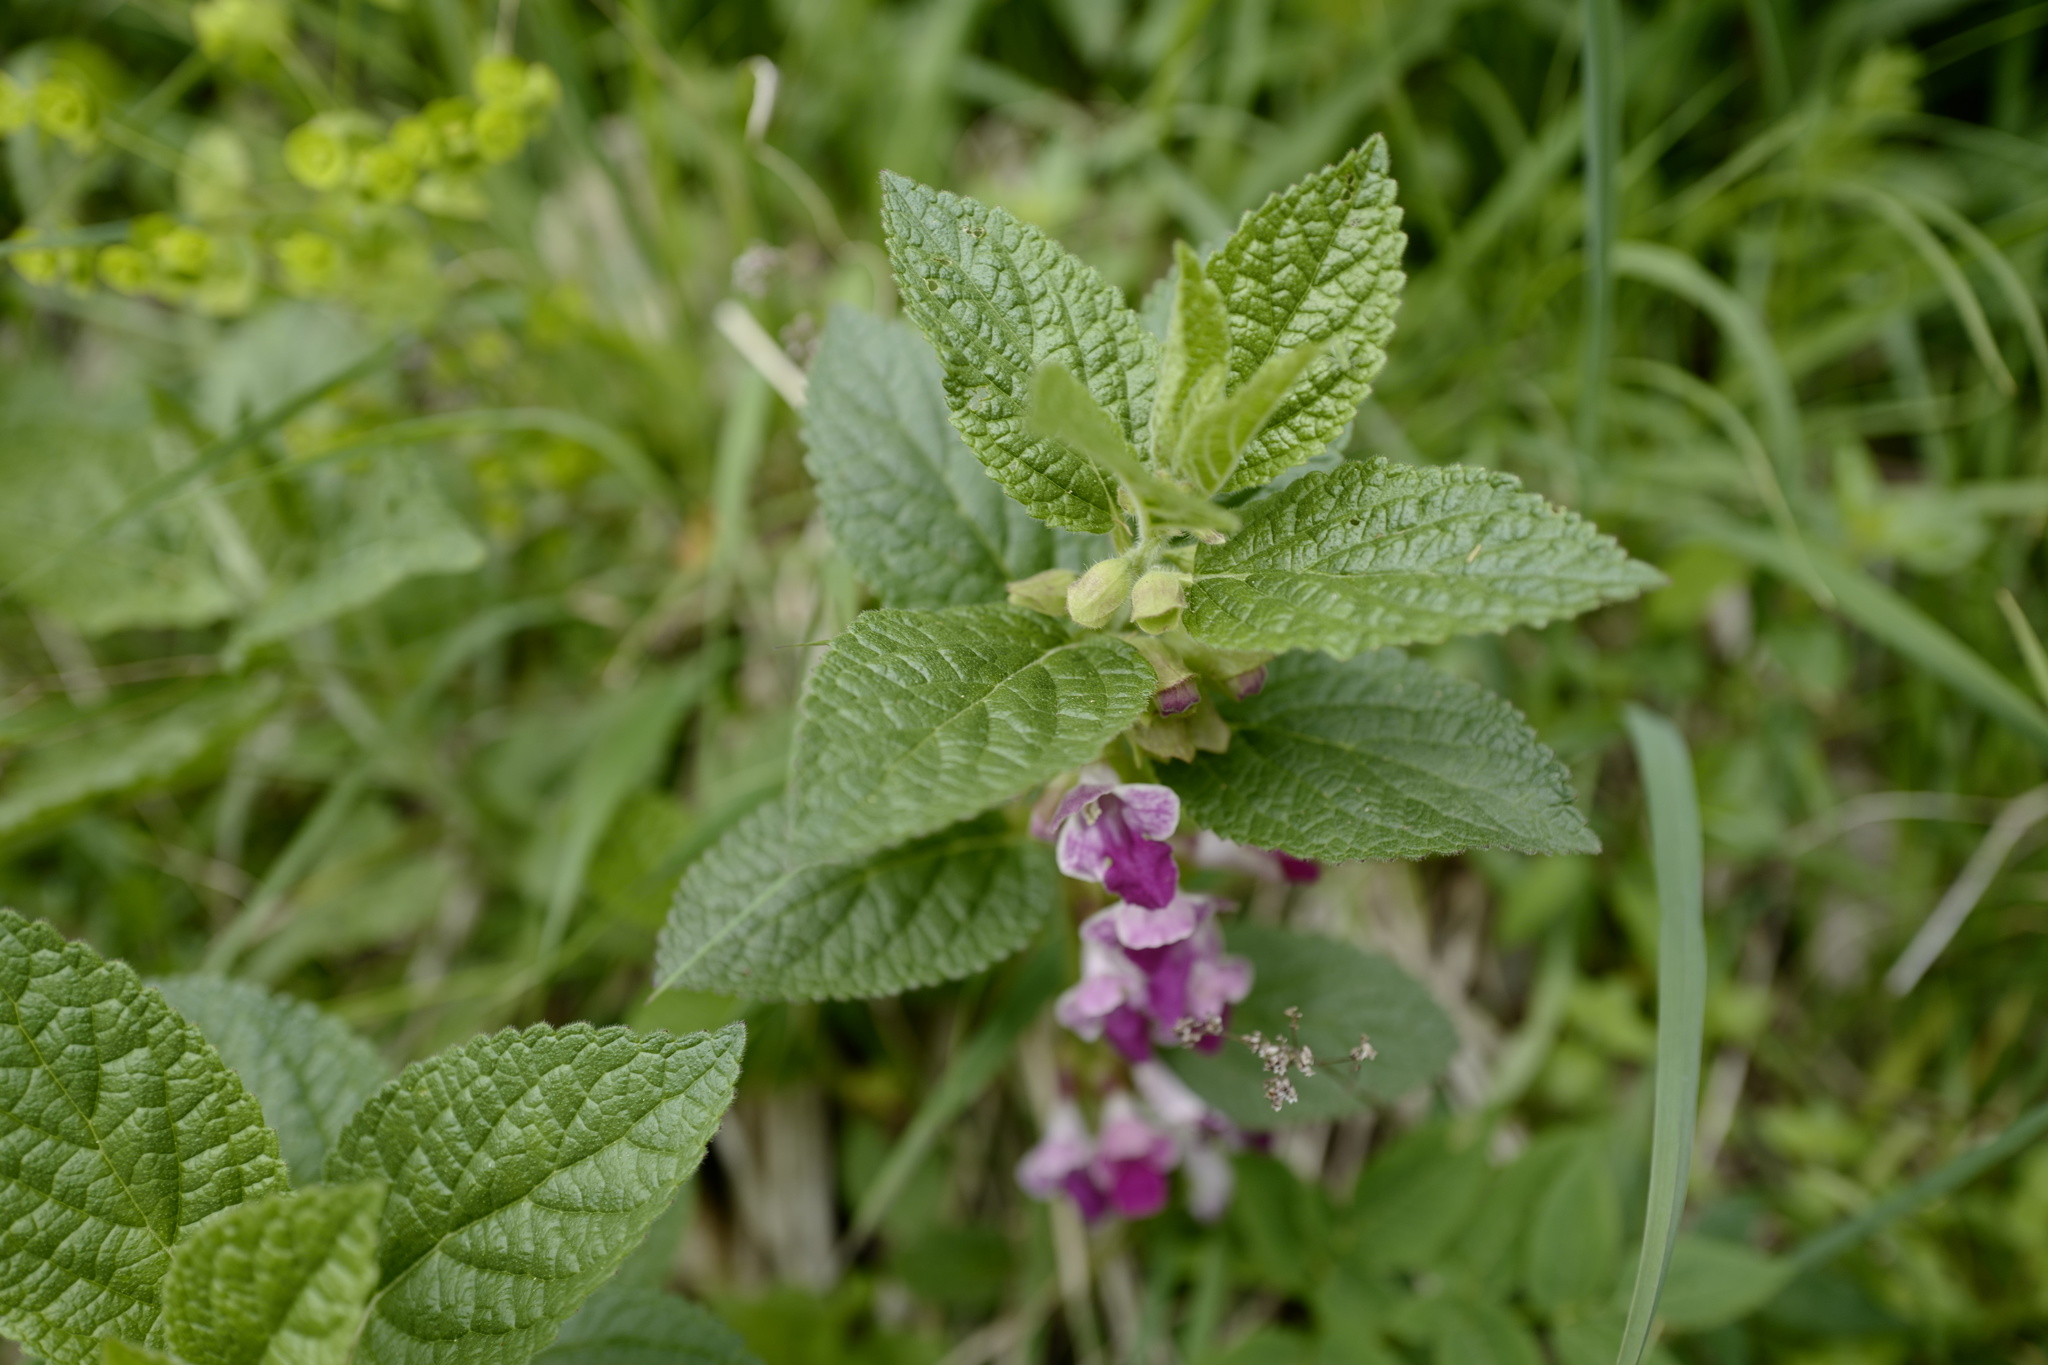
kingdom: Plantae
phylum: Tracheophyta
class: Magnoliopsida
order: Lamiales
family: Lamiaceae
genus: Melittis
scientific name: Melittis melissophyllum
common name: Bastard balm
